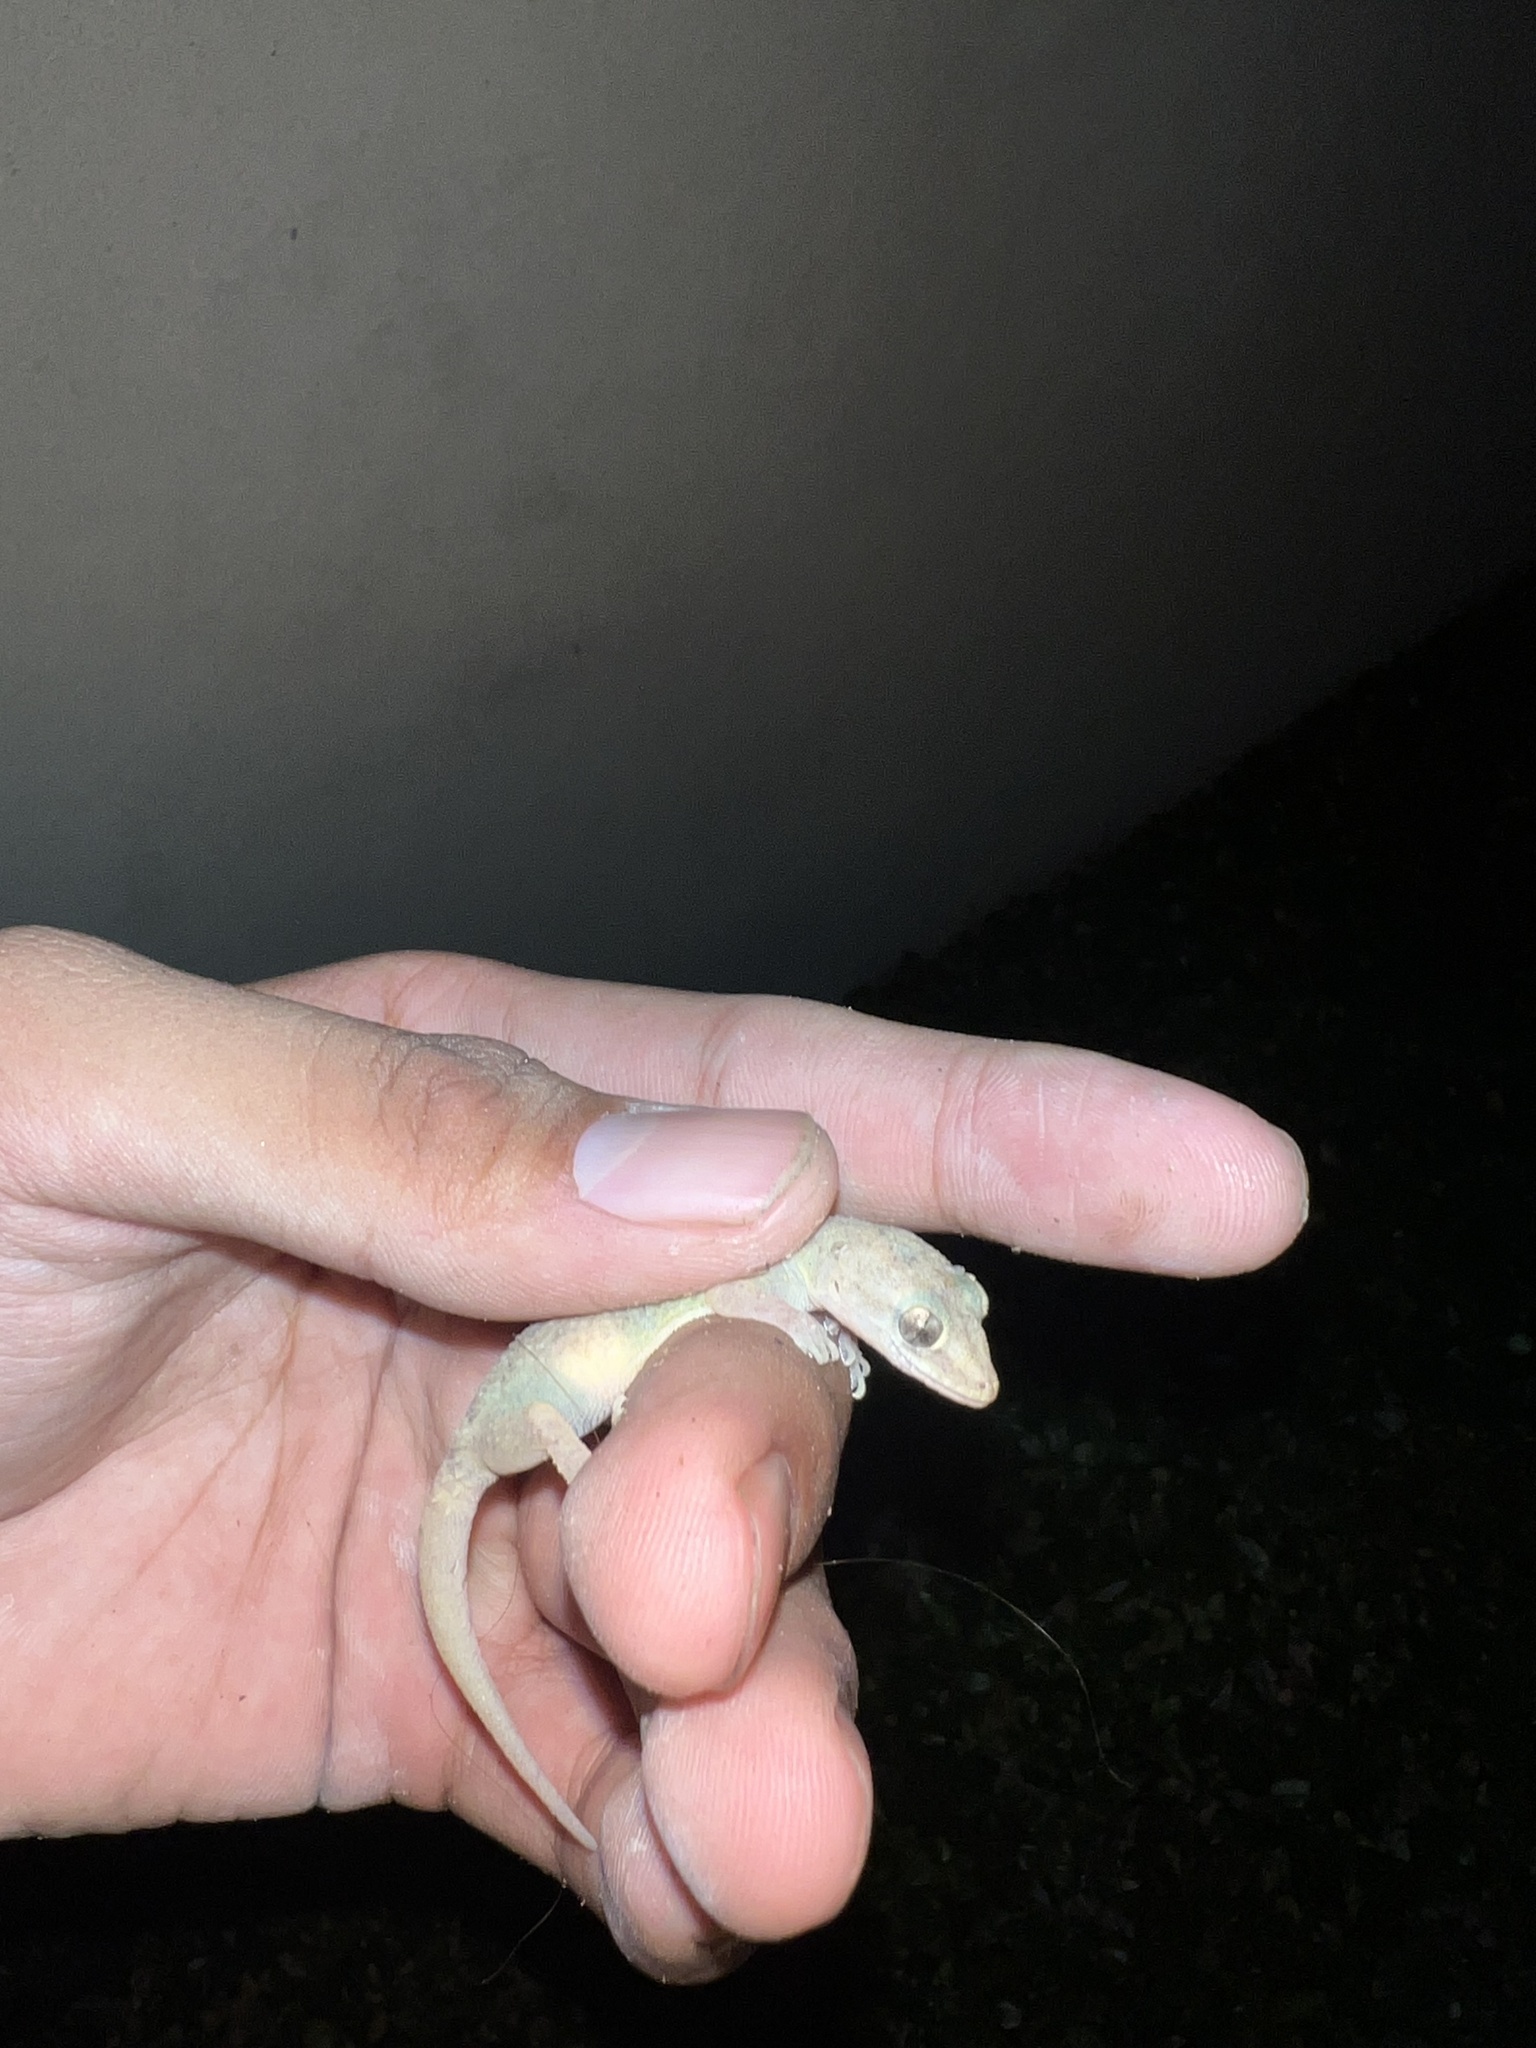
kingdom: Animalia
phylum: Chordata
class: Squamata
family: Gekkonidae
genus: Hemidactylus
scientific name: Hemidactylus parvimaculatus
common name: Spotted house gecko
